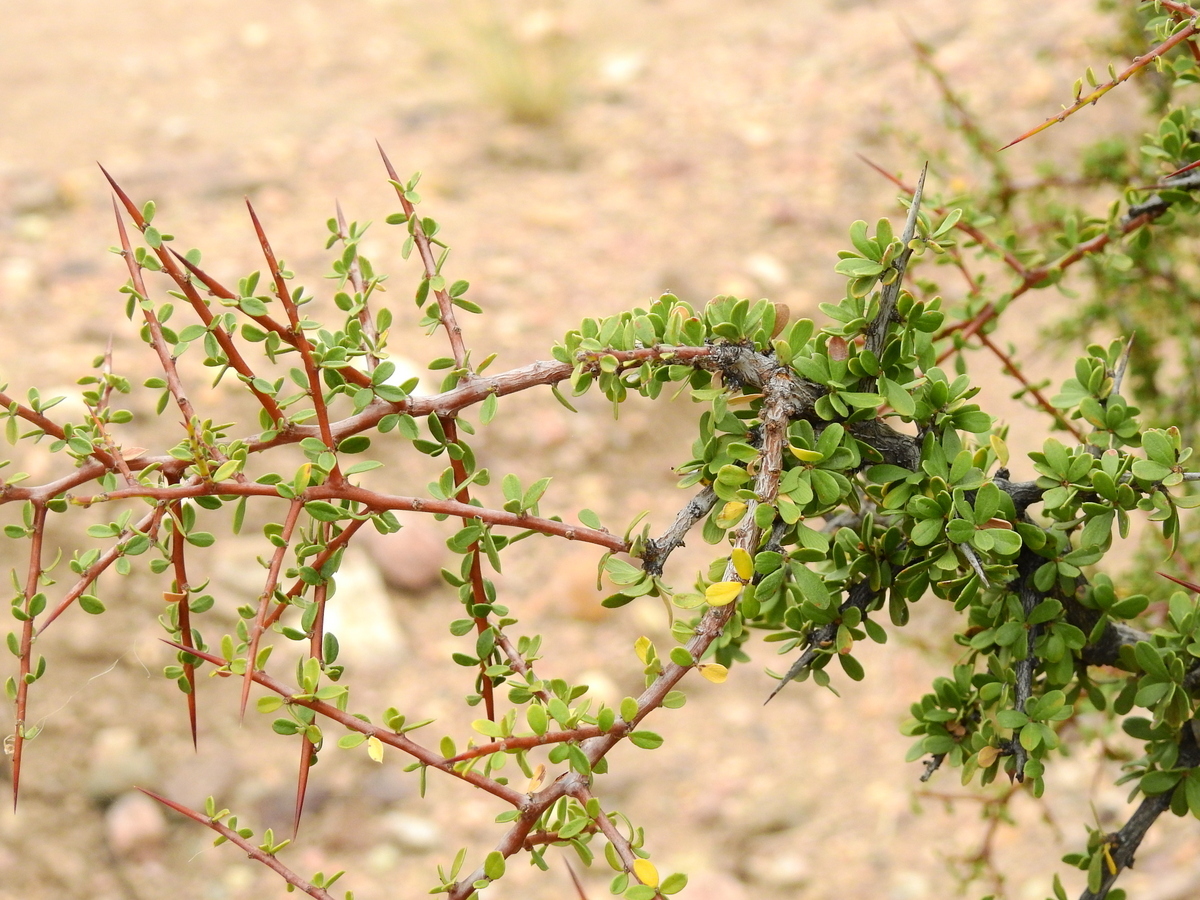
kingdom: Plantae
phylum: Tracheophyta
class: Magnoliopsida
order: Rosales
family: Rhamnaceae
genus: Condalia
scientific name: Condalia microphylla
